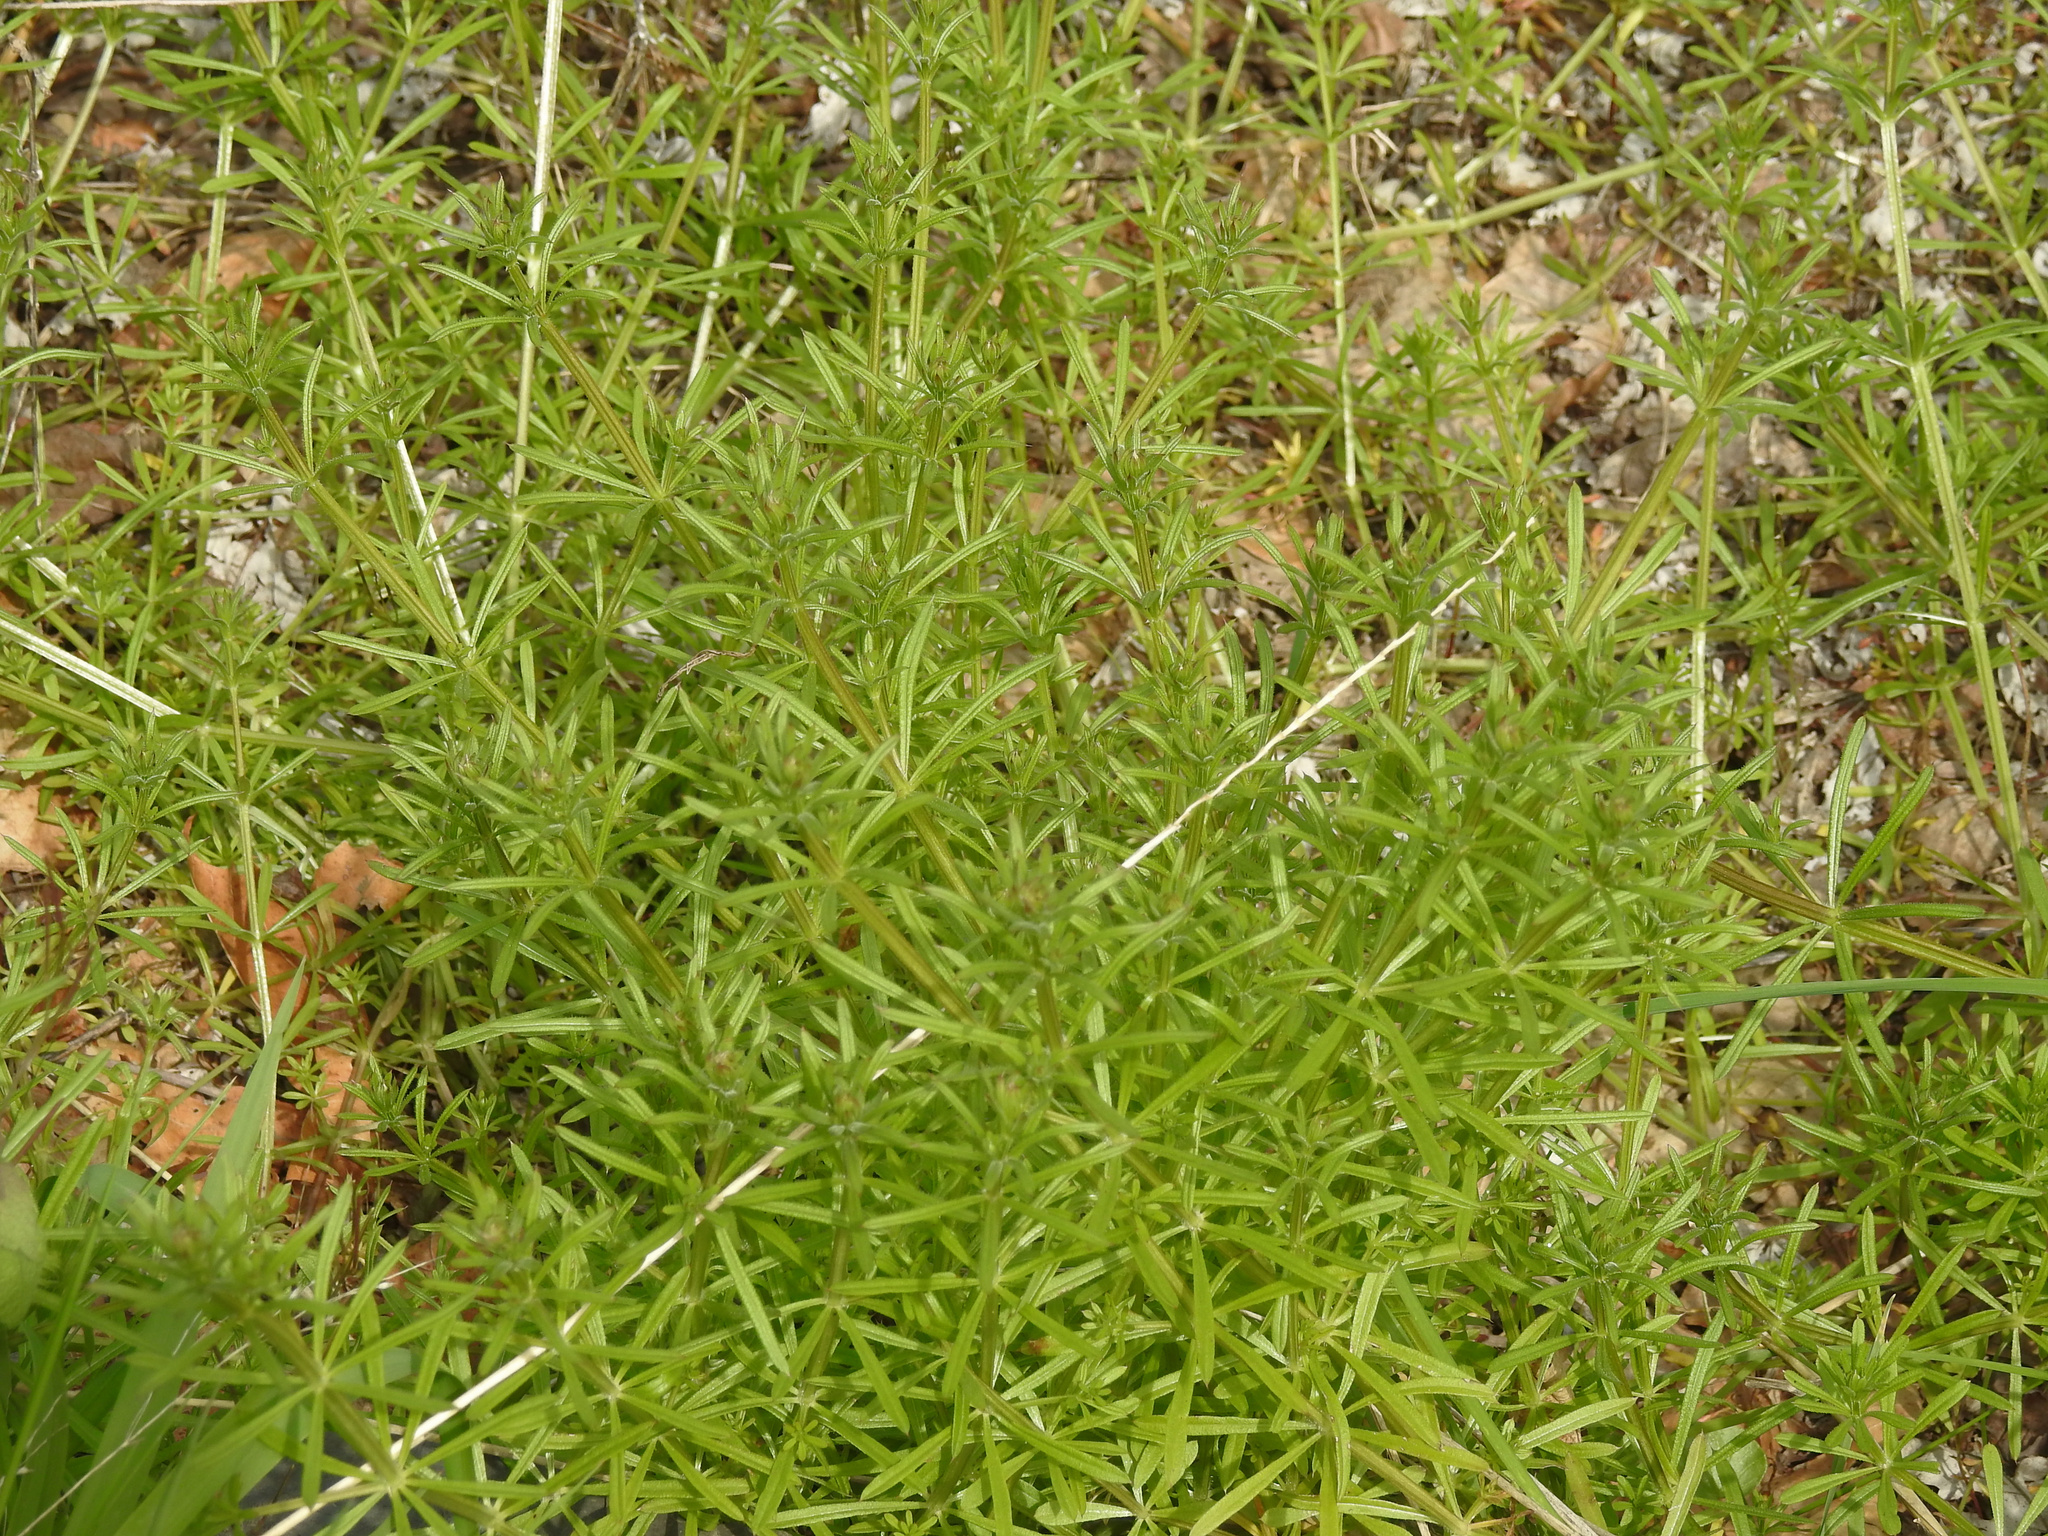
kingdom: Plantae
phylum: Tracheophyta
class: Magnoliopsida
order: Gentianales
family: Rubiaceae
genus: Galium
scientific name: Galium aparine
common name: Cleavers
